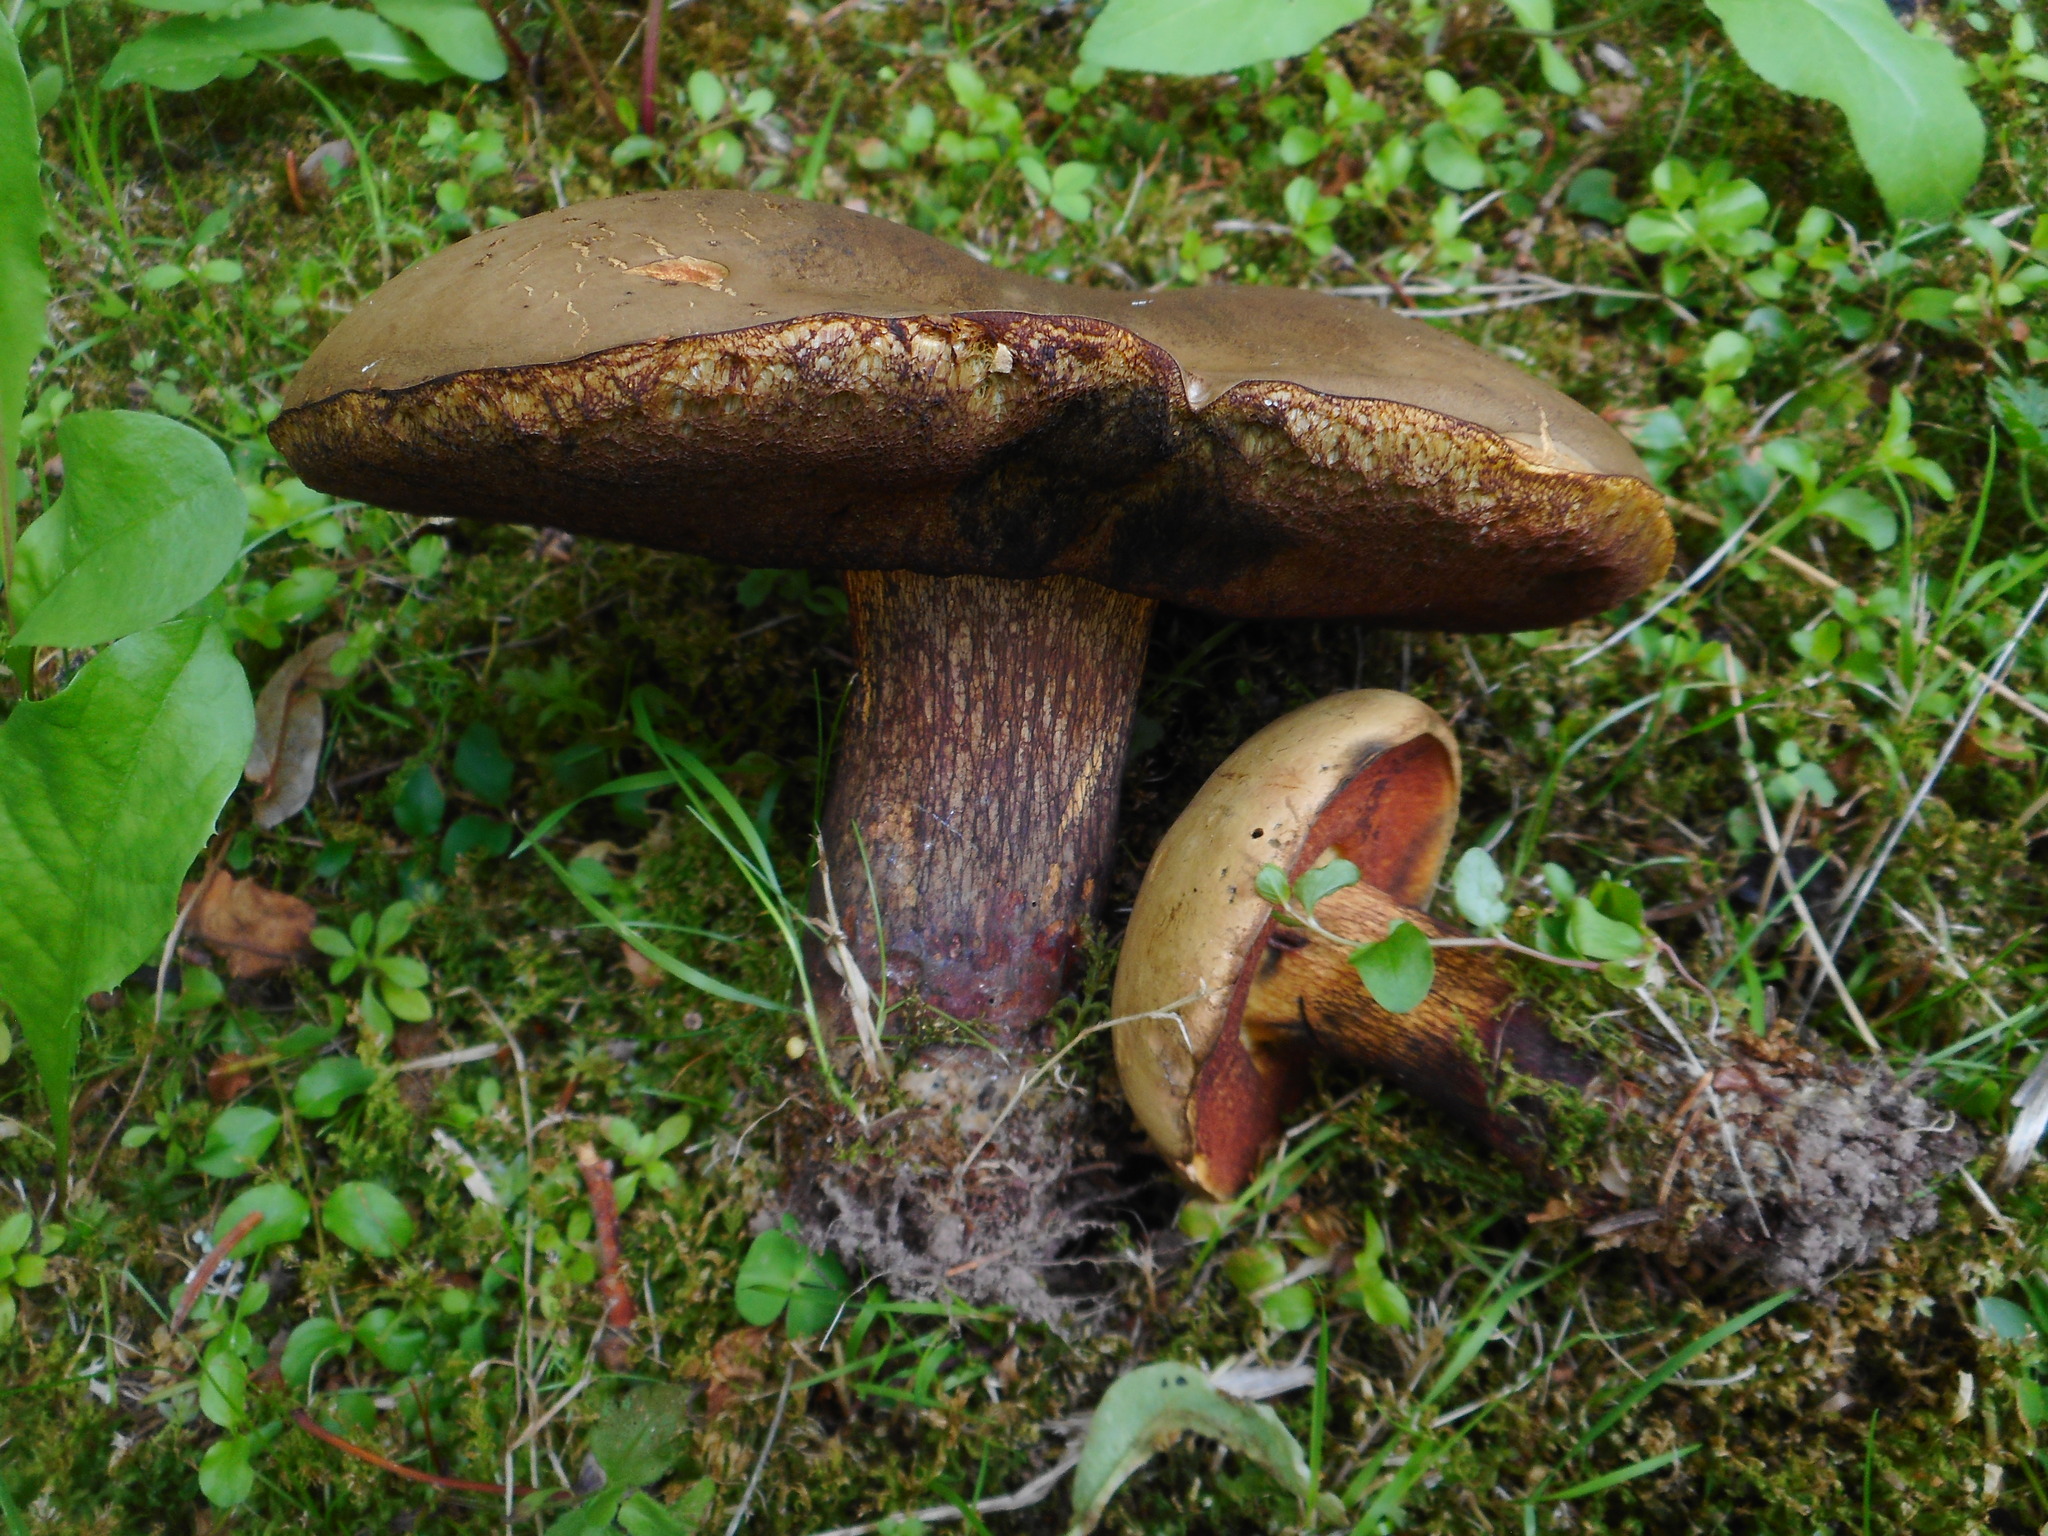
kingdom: Fungi
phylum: Basidiomycota
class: Agaricomycetes
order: Boletales
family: Boletaceae
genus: Suillellus
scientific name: Suillellus luridus
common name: Lurid bolete
